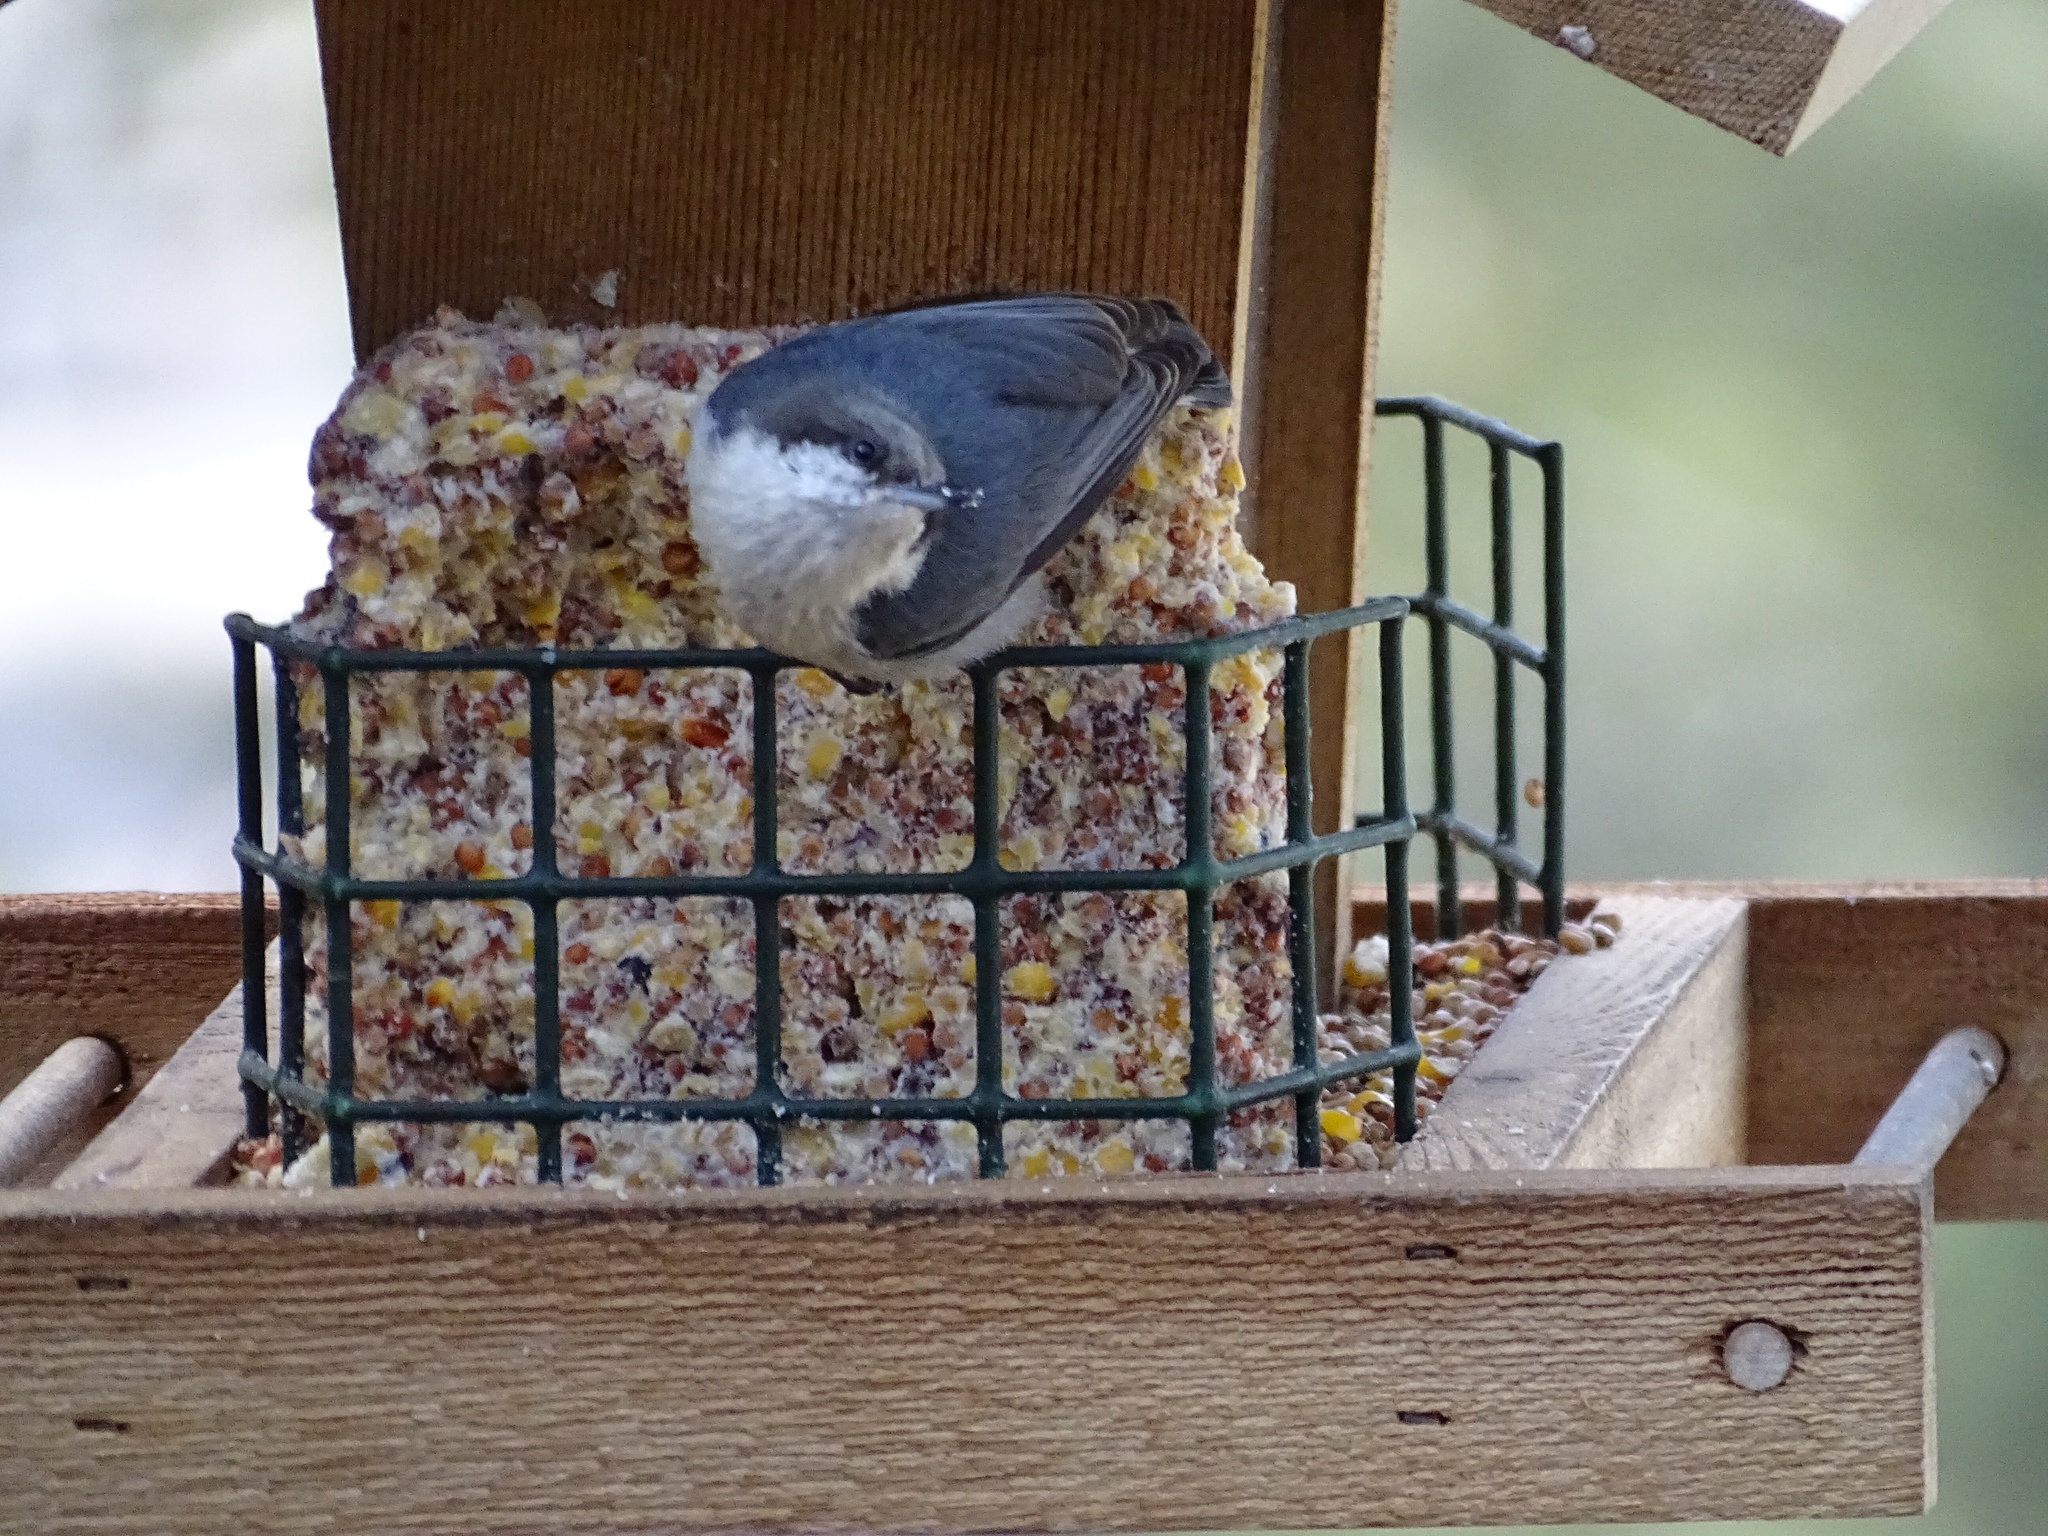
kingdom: Animalia
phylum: Chordata
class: Aves
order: Passeriformes
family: Sittidae
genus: Sitta
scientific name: Sitta pygmaea
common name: Pygmy nuthatch
